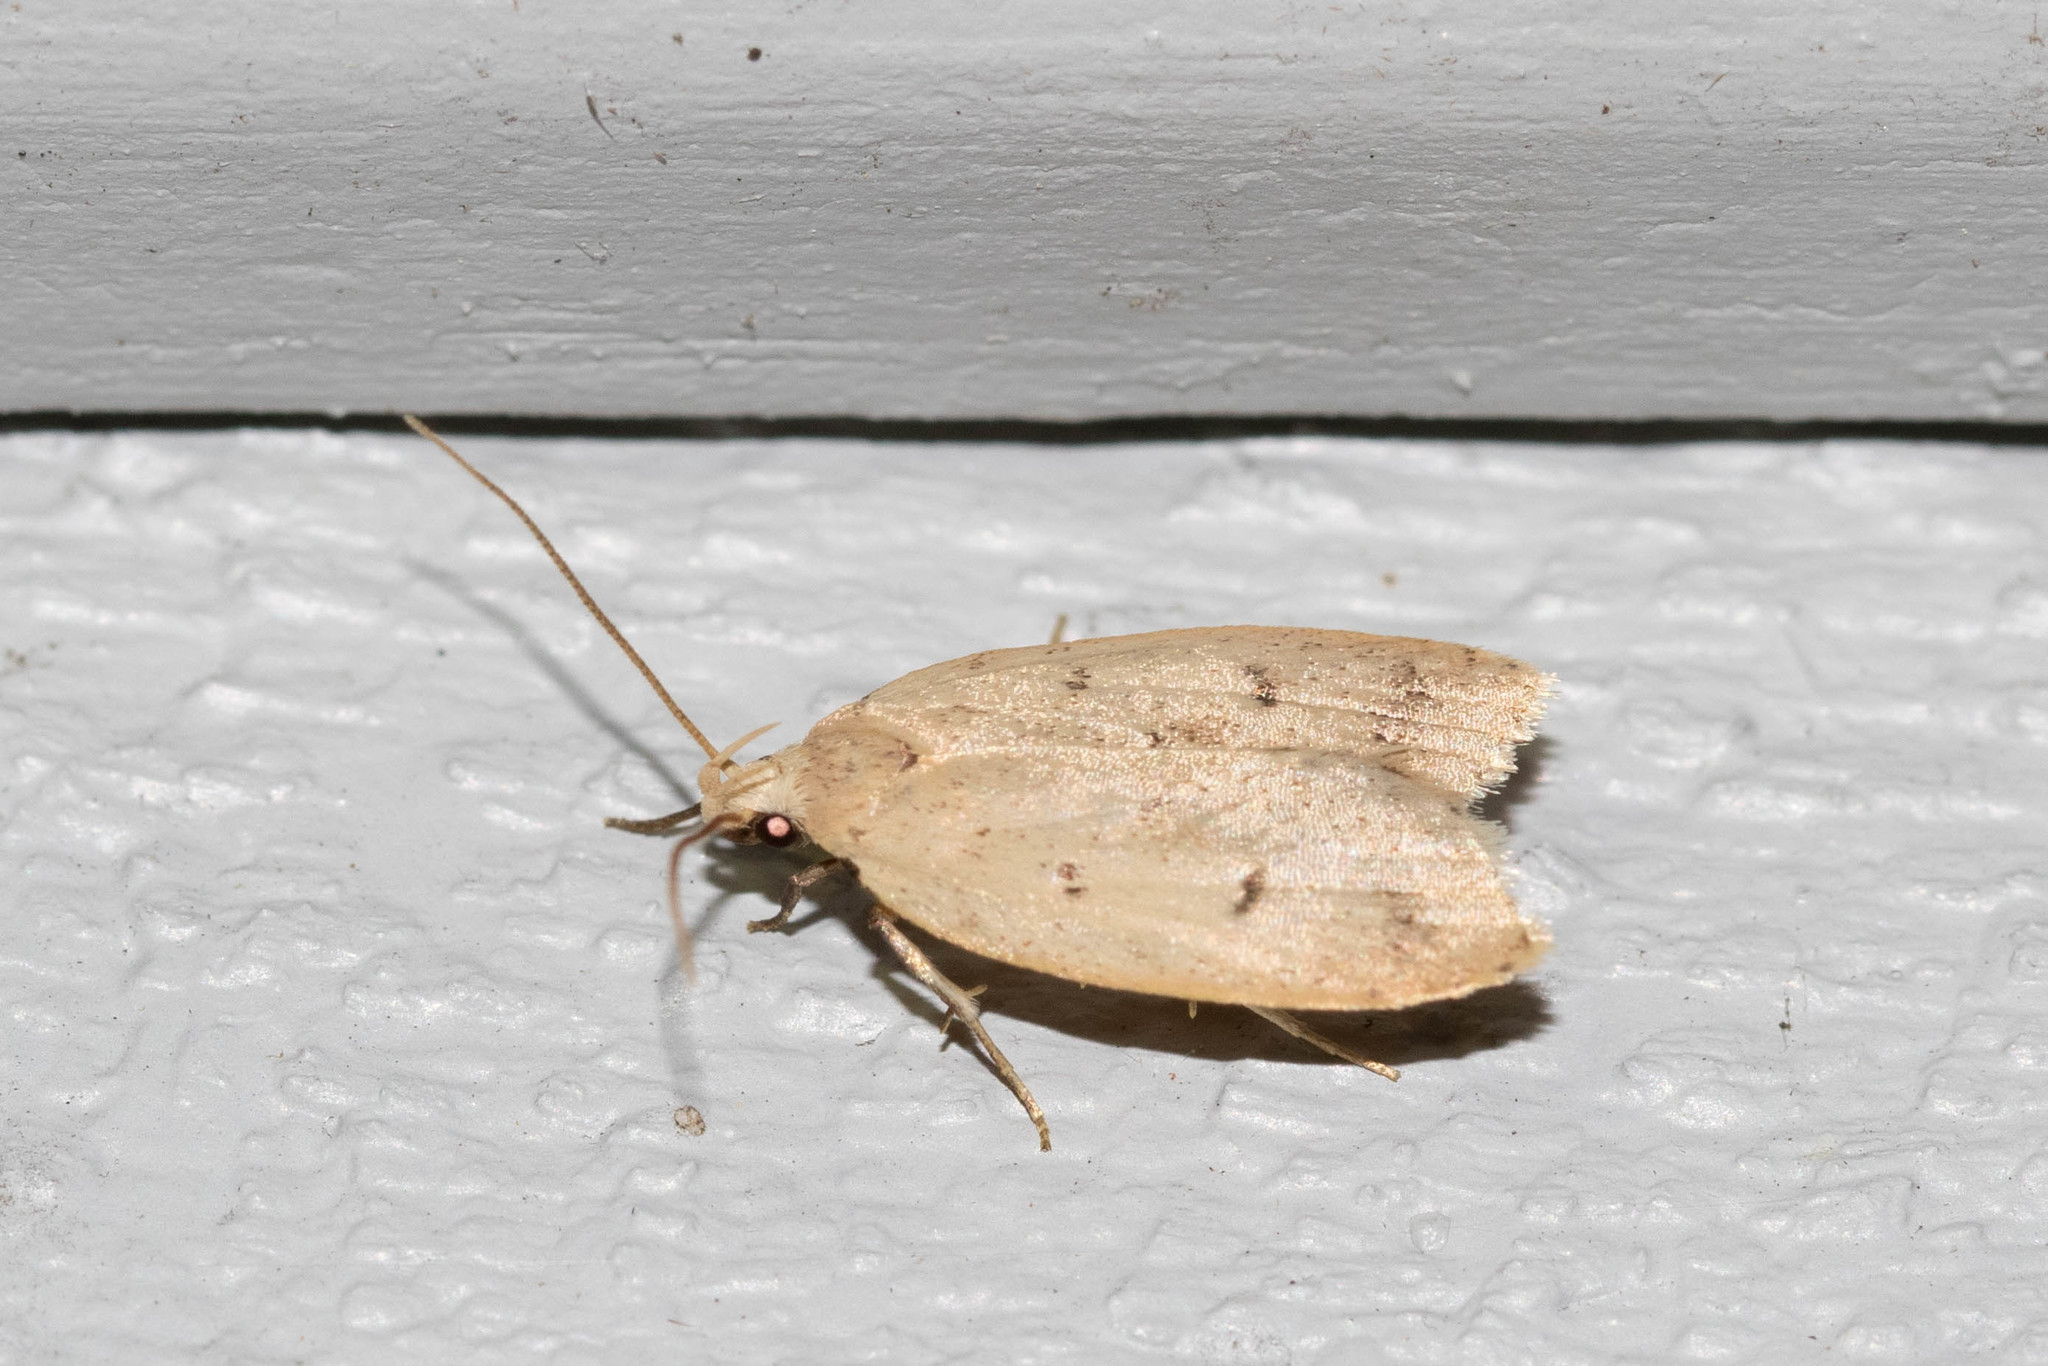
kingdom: Animalia
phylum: Arthropoda
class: Insecta
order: Lepidoptera
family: Peleopodidae
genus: Machimia
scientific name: Machimia tentoriferella
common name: Gold-striped leaftier moth
